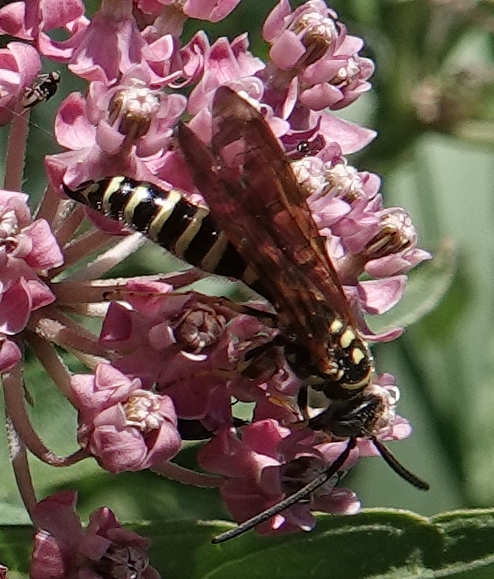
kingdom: Animalia
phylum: Arthropoda
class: Insecta
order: Hymenoptera
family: Tiphiidae
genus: Myzinum
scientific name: Myzinum quinquecinctum
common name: Five-banded thynnid wasp
